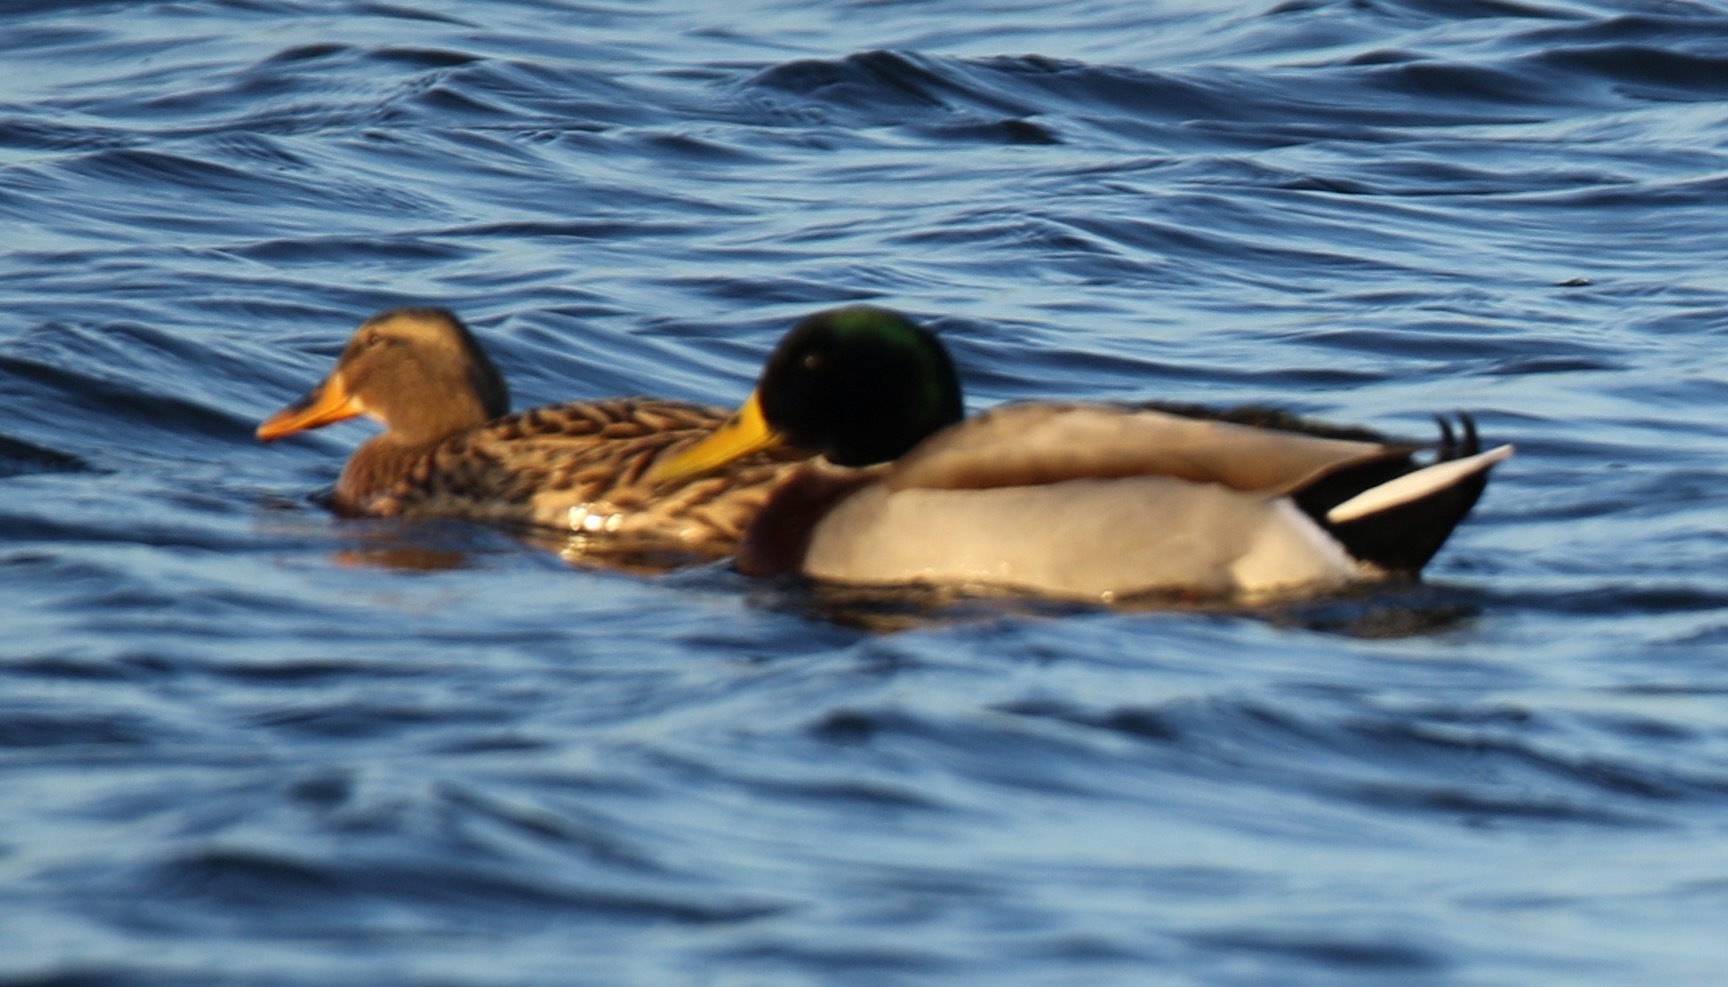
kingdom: Animalia
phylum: Chordata
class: Aves
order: Anseriformes
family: Anatidae
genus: Anas
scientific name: Anas platyrhynchos
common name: Mallard
